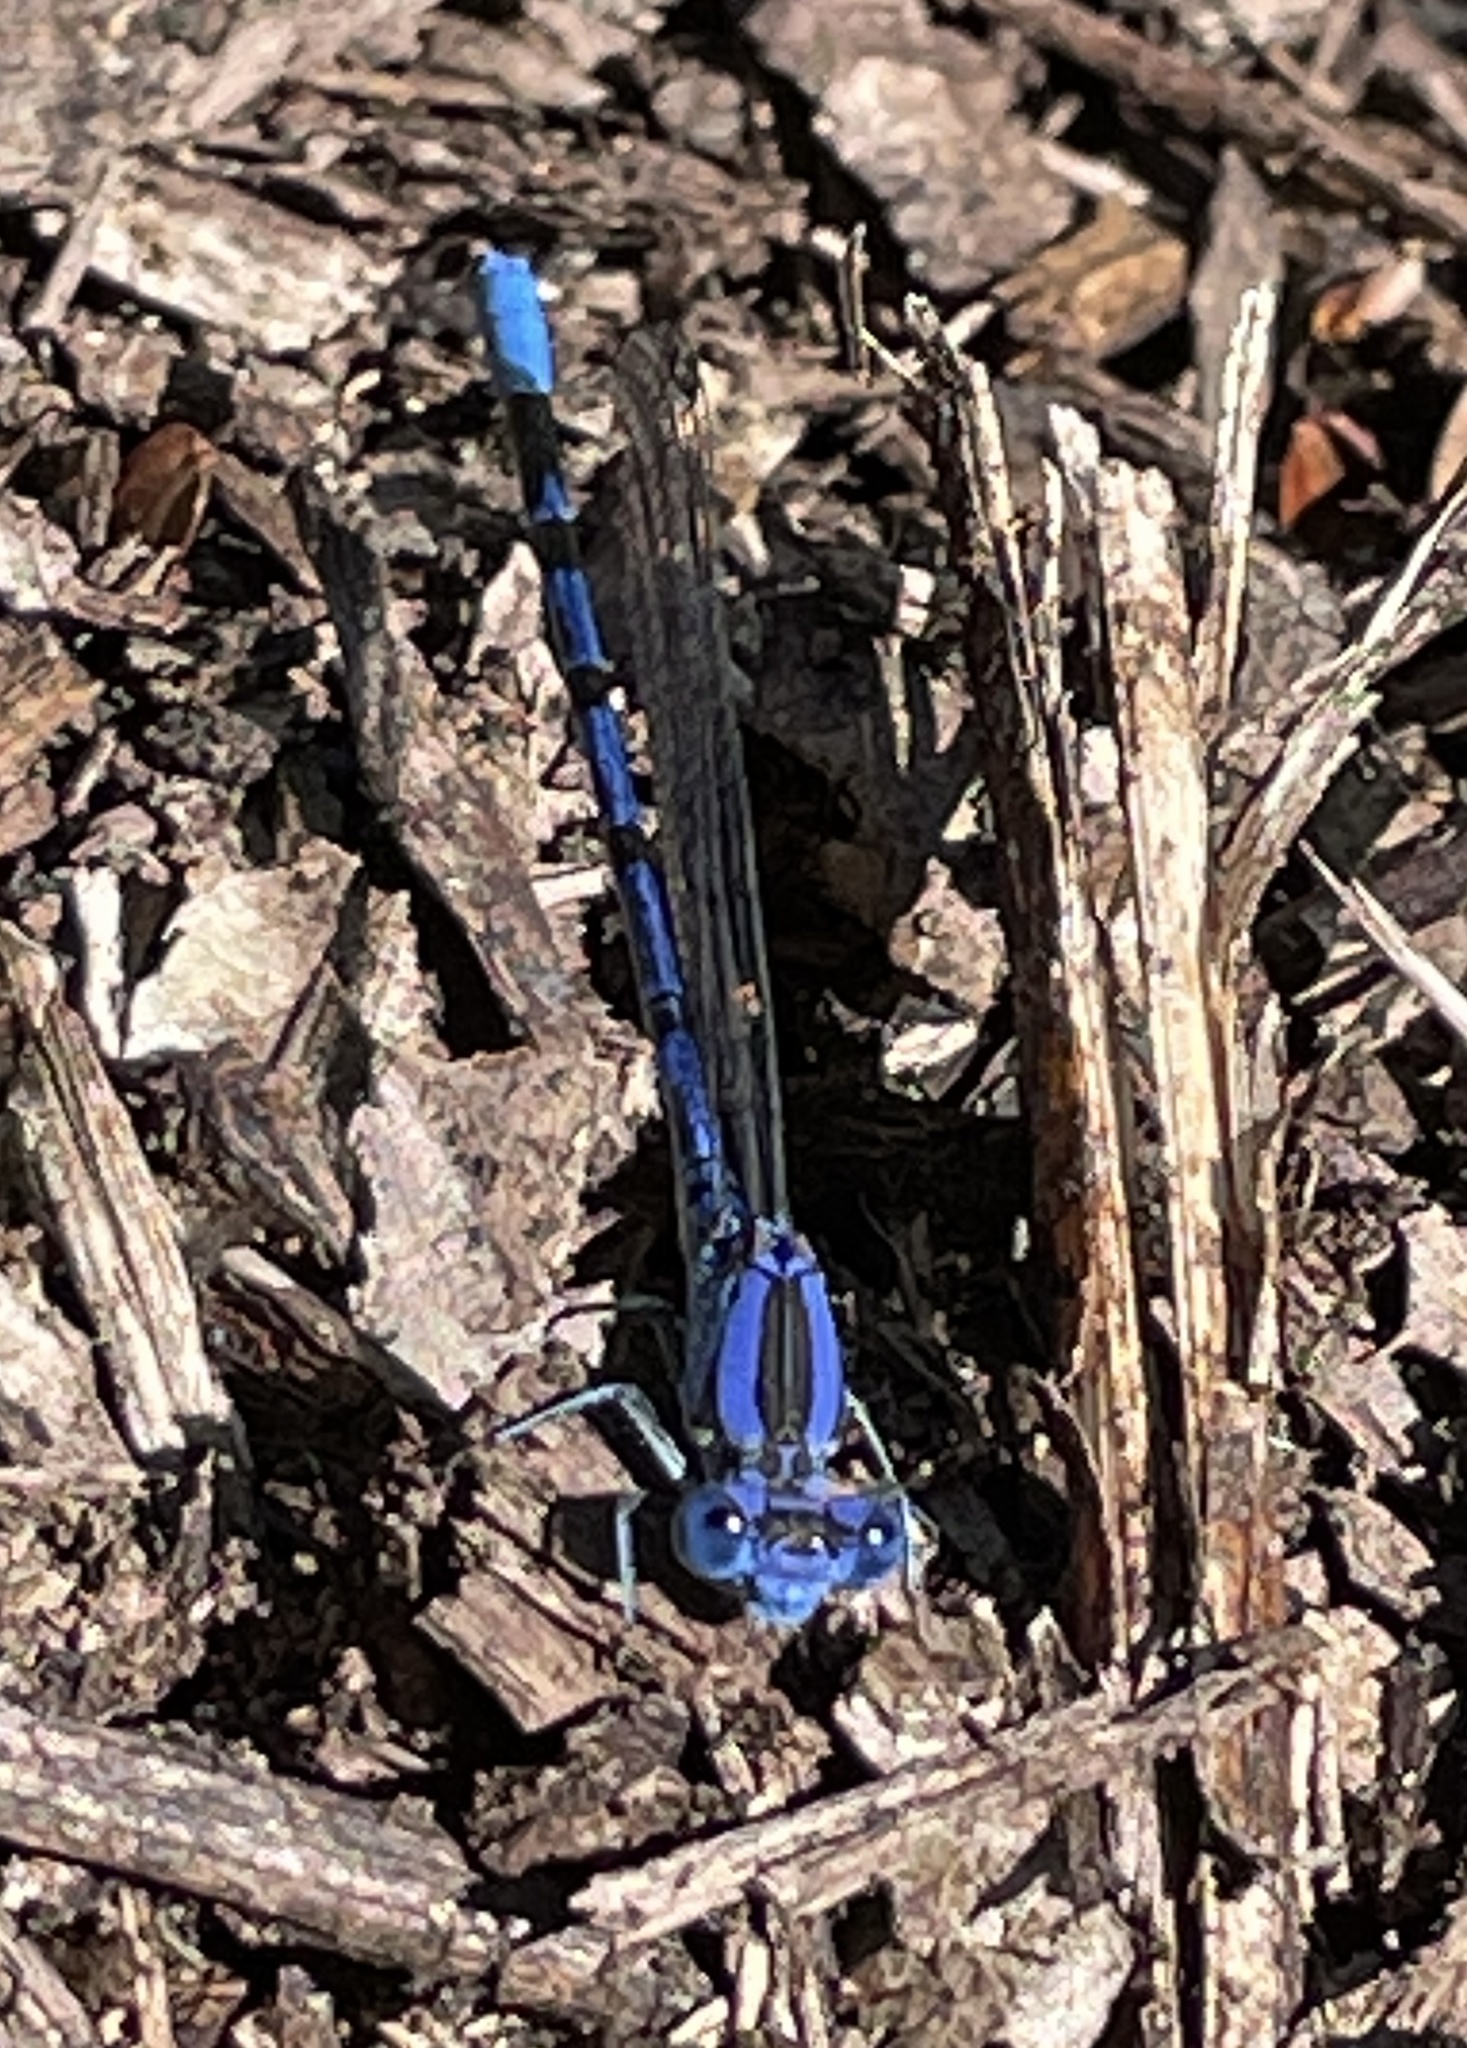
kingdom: Animalia
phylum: Arthropoda
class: Insecta
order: Odonata
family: Coenagrionidae
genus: Argia
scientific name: Argia vivida
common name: Vivid dancer
